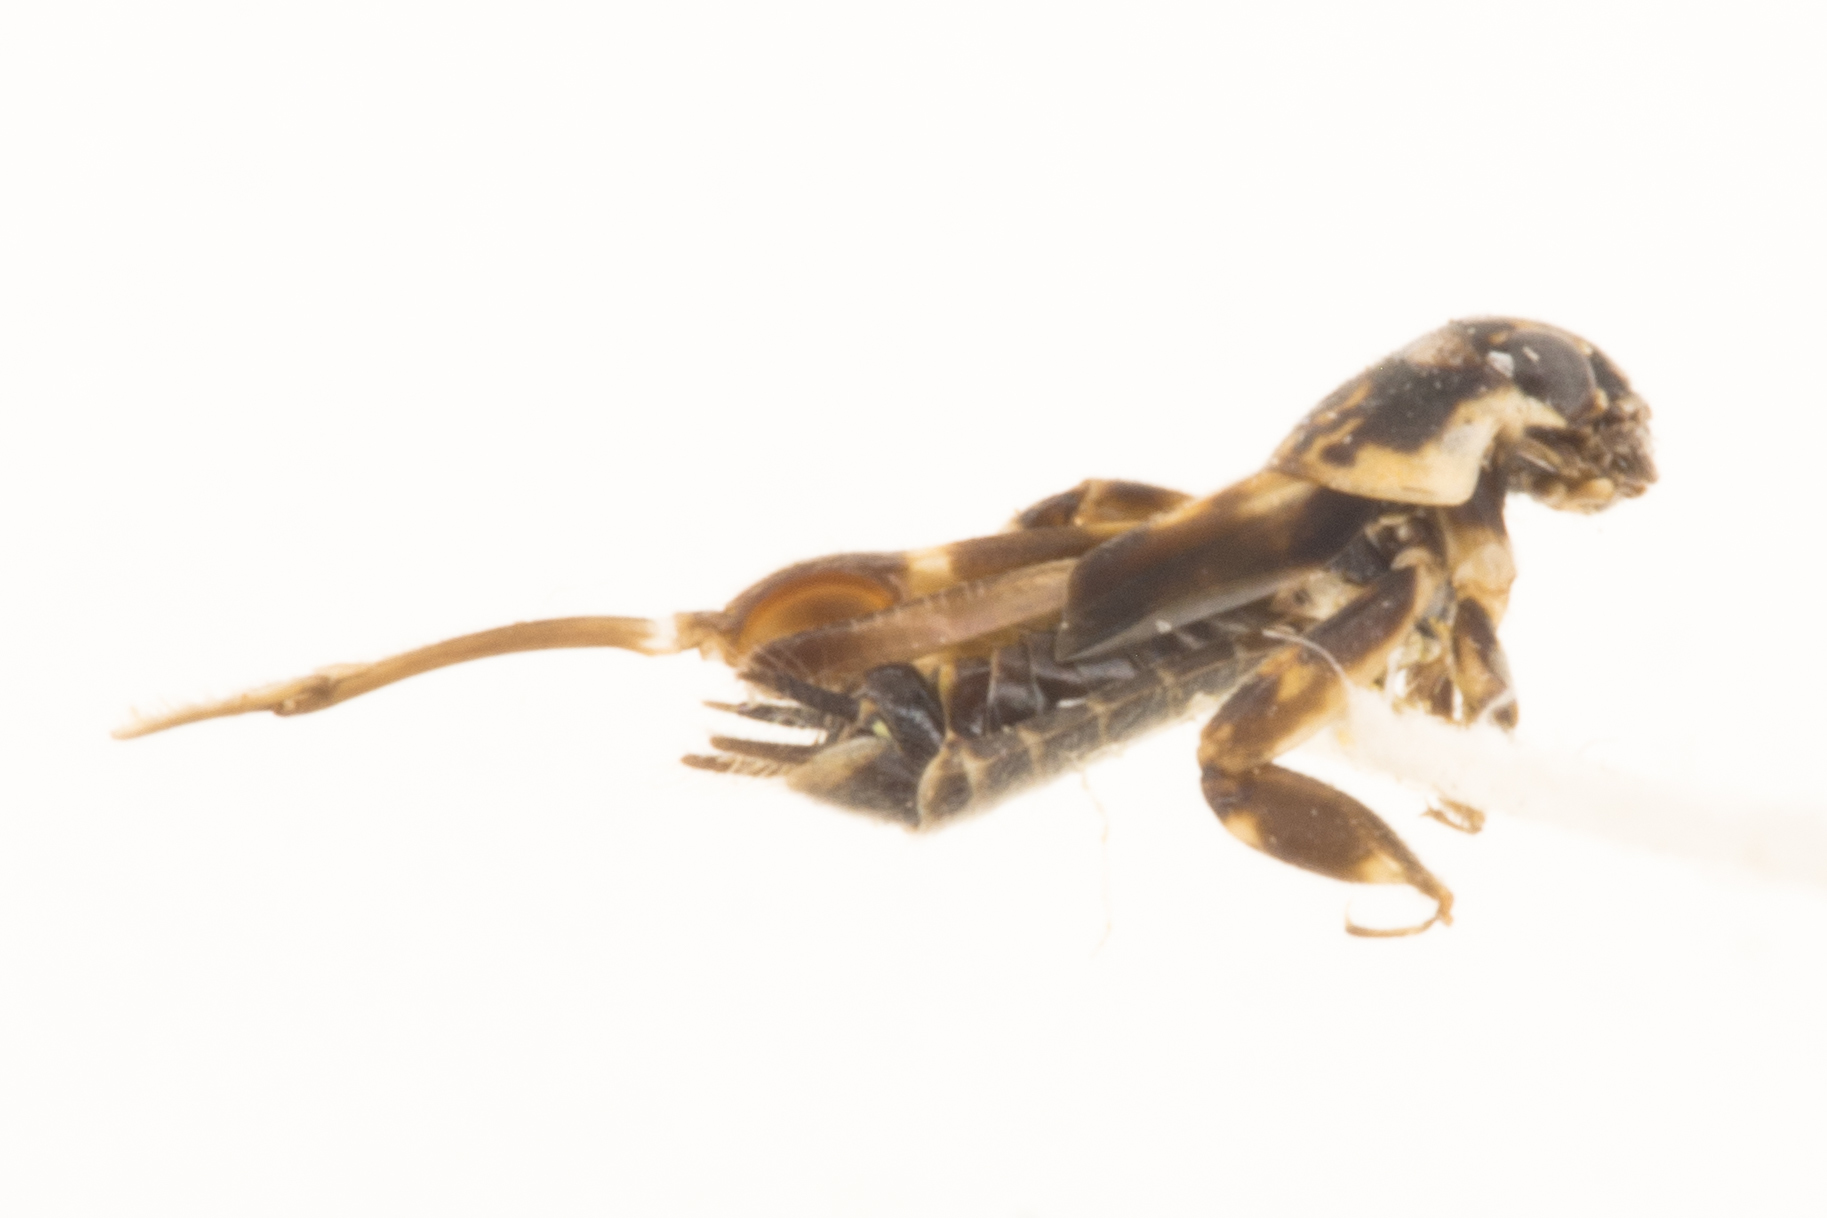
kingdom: Animalia
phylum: Arthropoda
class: Insecta
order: Orthoptera
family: Tridactylidae
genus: Ellipes
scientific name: Ellipes monticolus
